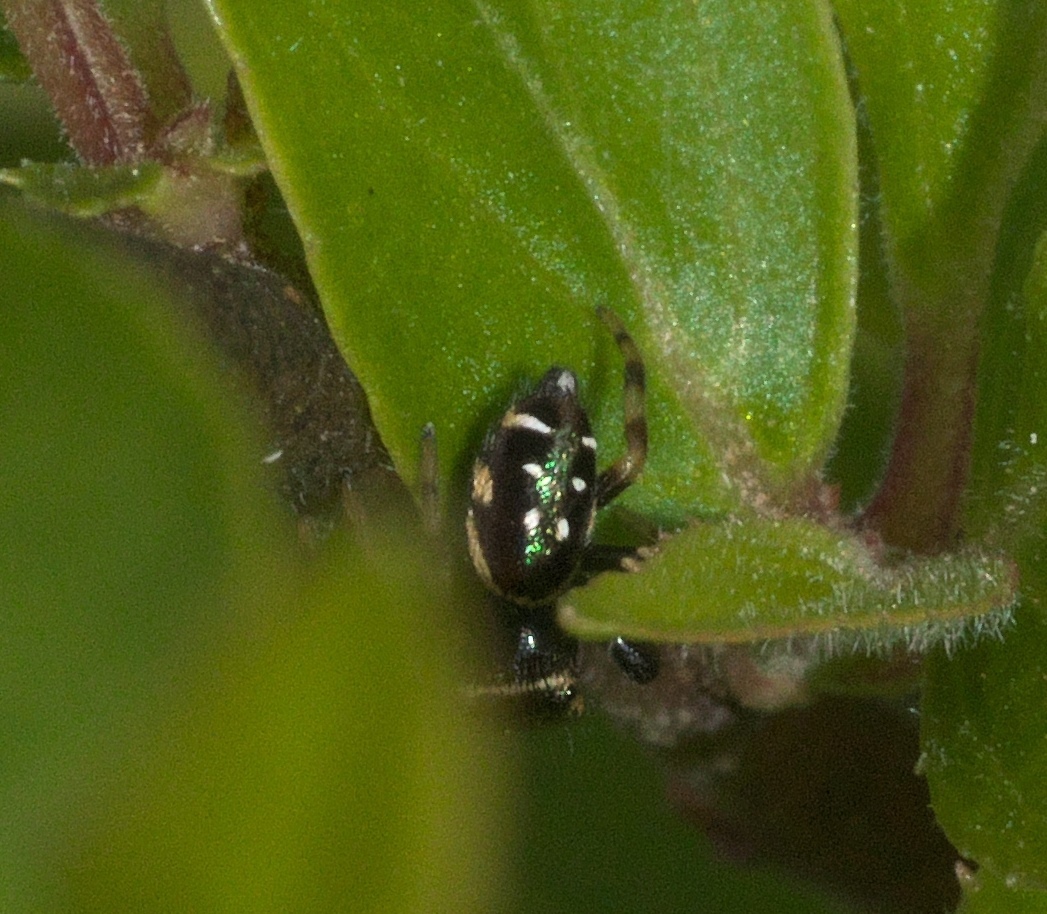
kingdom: Animalia
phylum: Arthropoda
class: Arachnida
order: Araneae
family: Salticidae
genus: Paraphidippus
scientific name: Paraphidippus aurantius
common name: Jumping spiders
